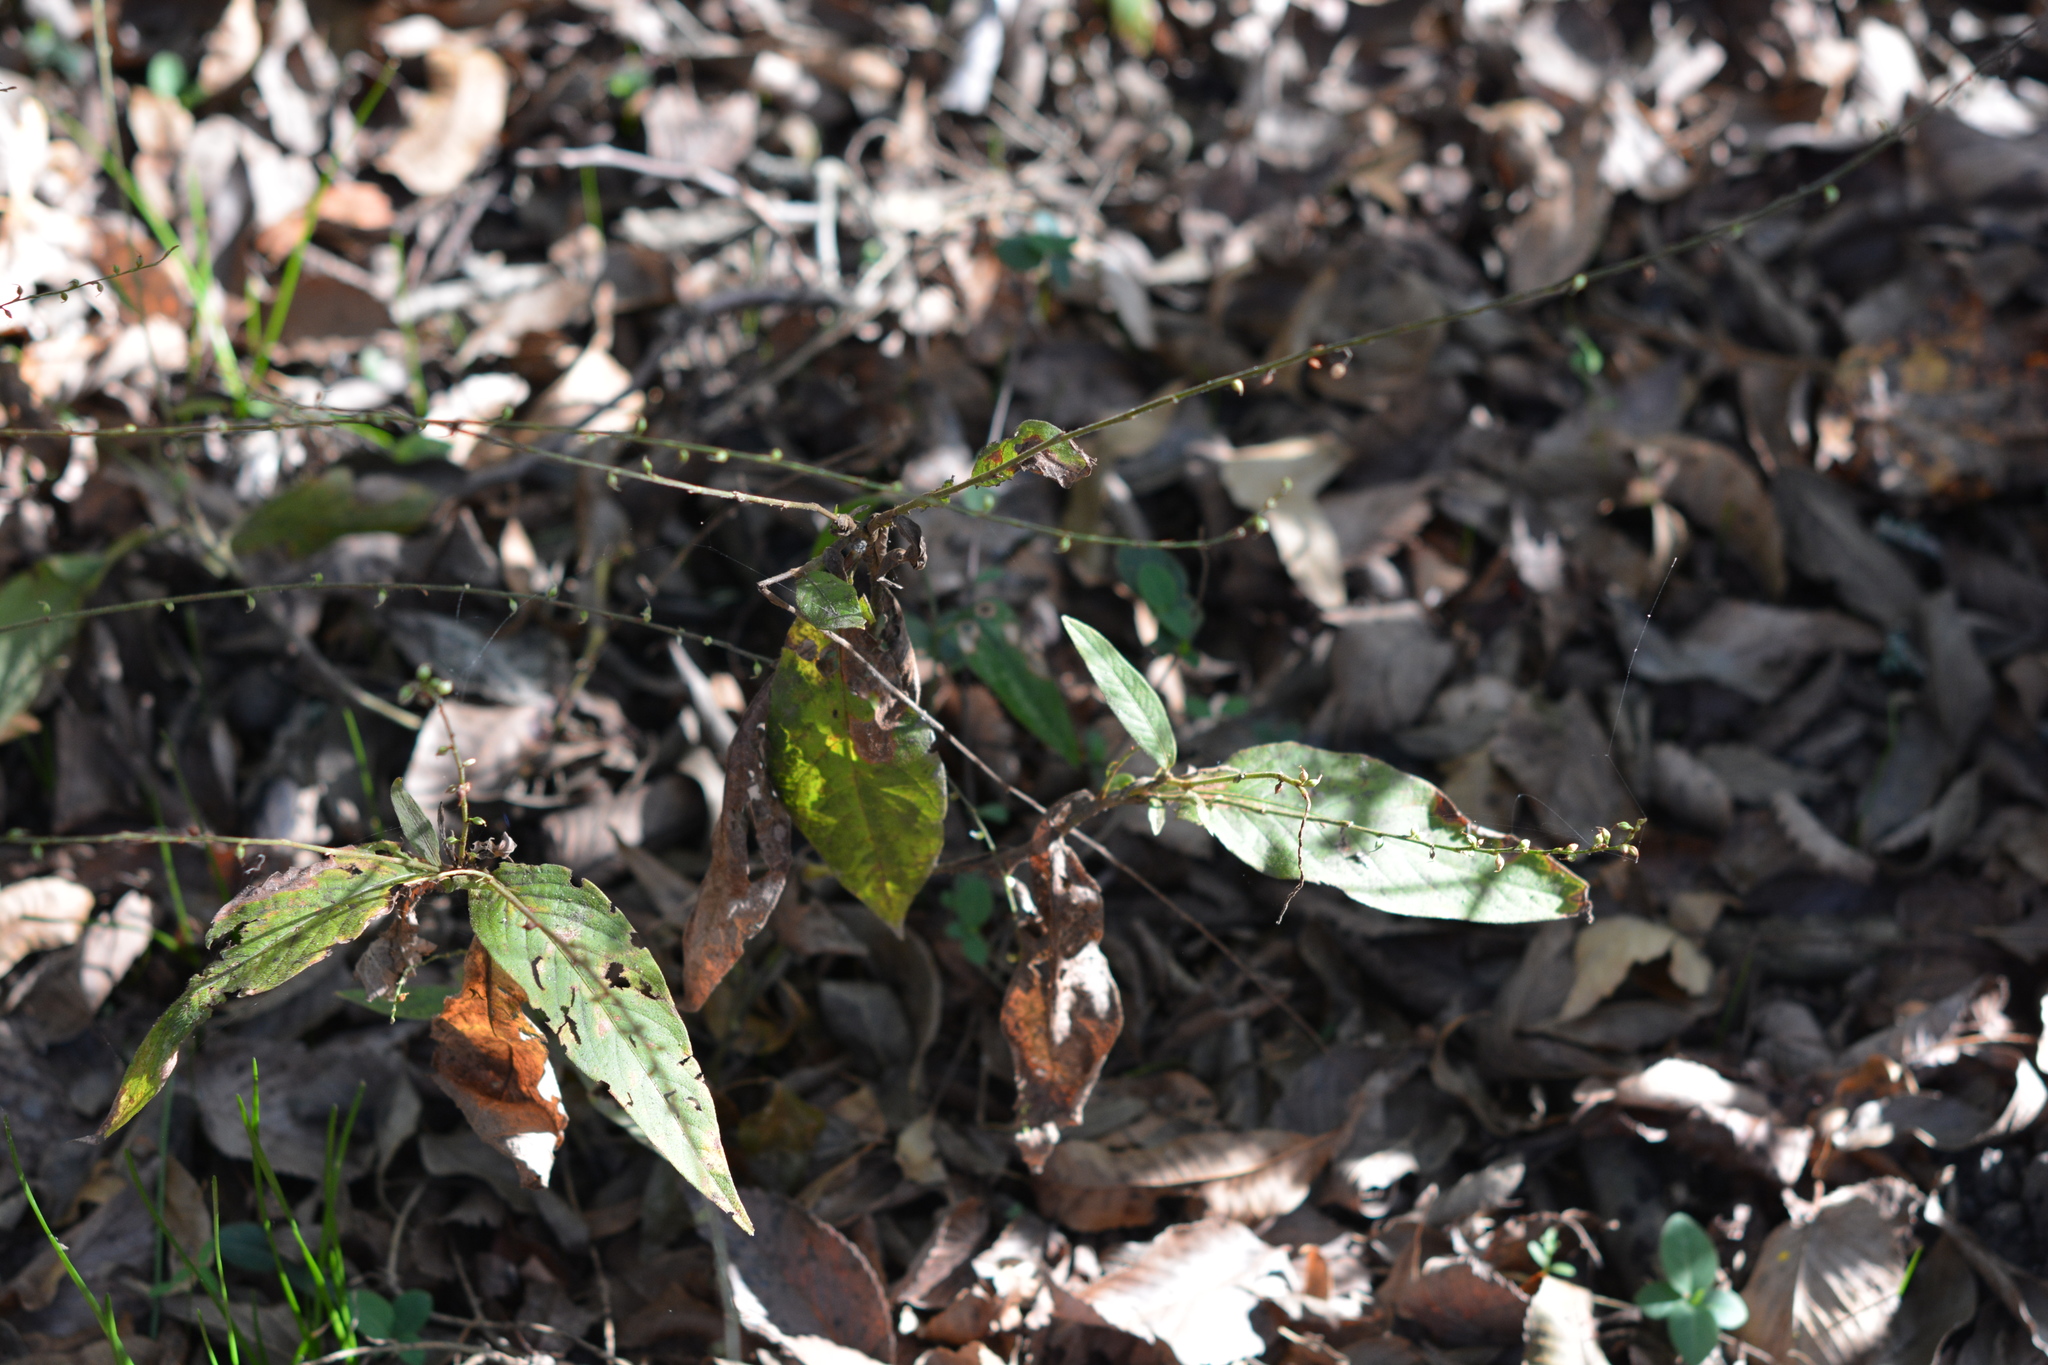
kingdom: Plantae
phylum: Tracheophyta
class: Magnoliopsida
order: Caryophyllales
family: Polygonaceae
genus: Persicaria
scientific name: Persicaria virginiana
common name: Jumpseed
